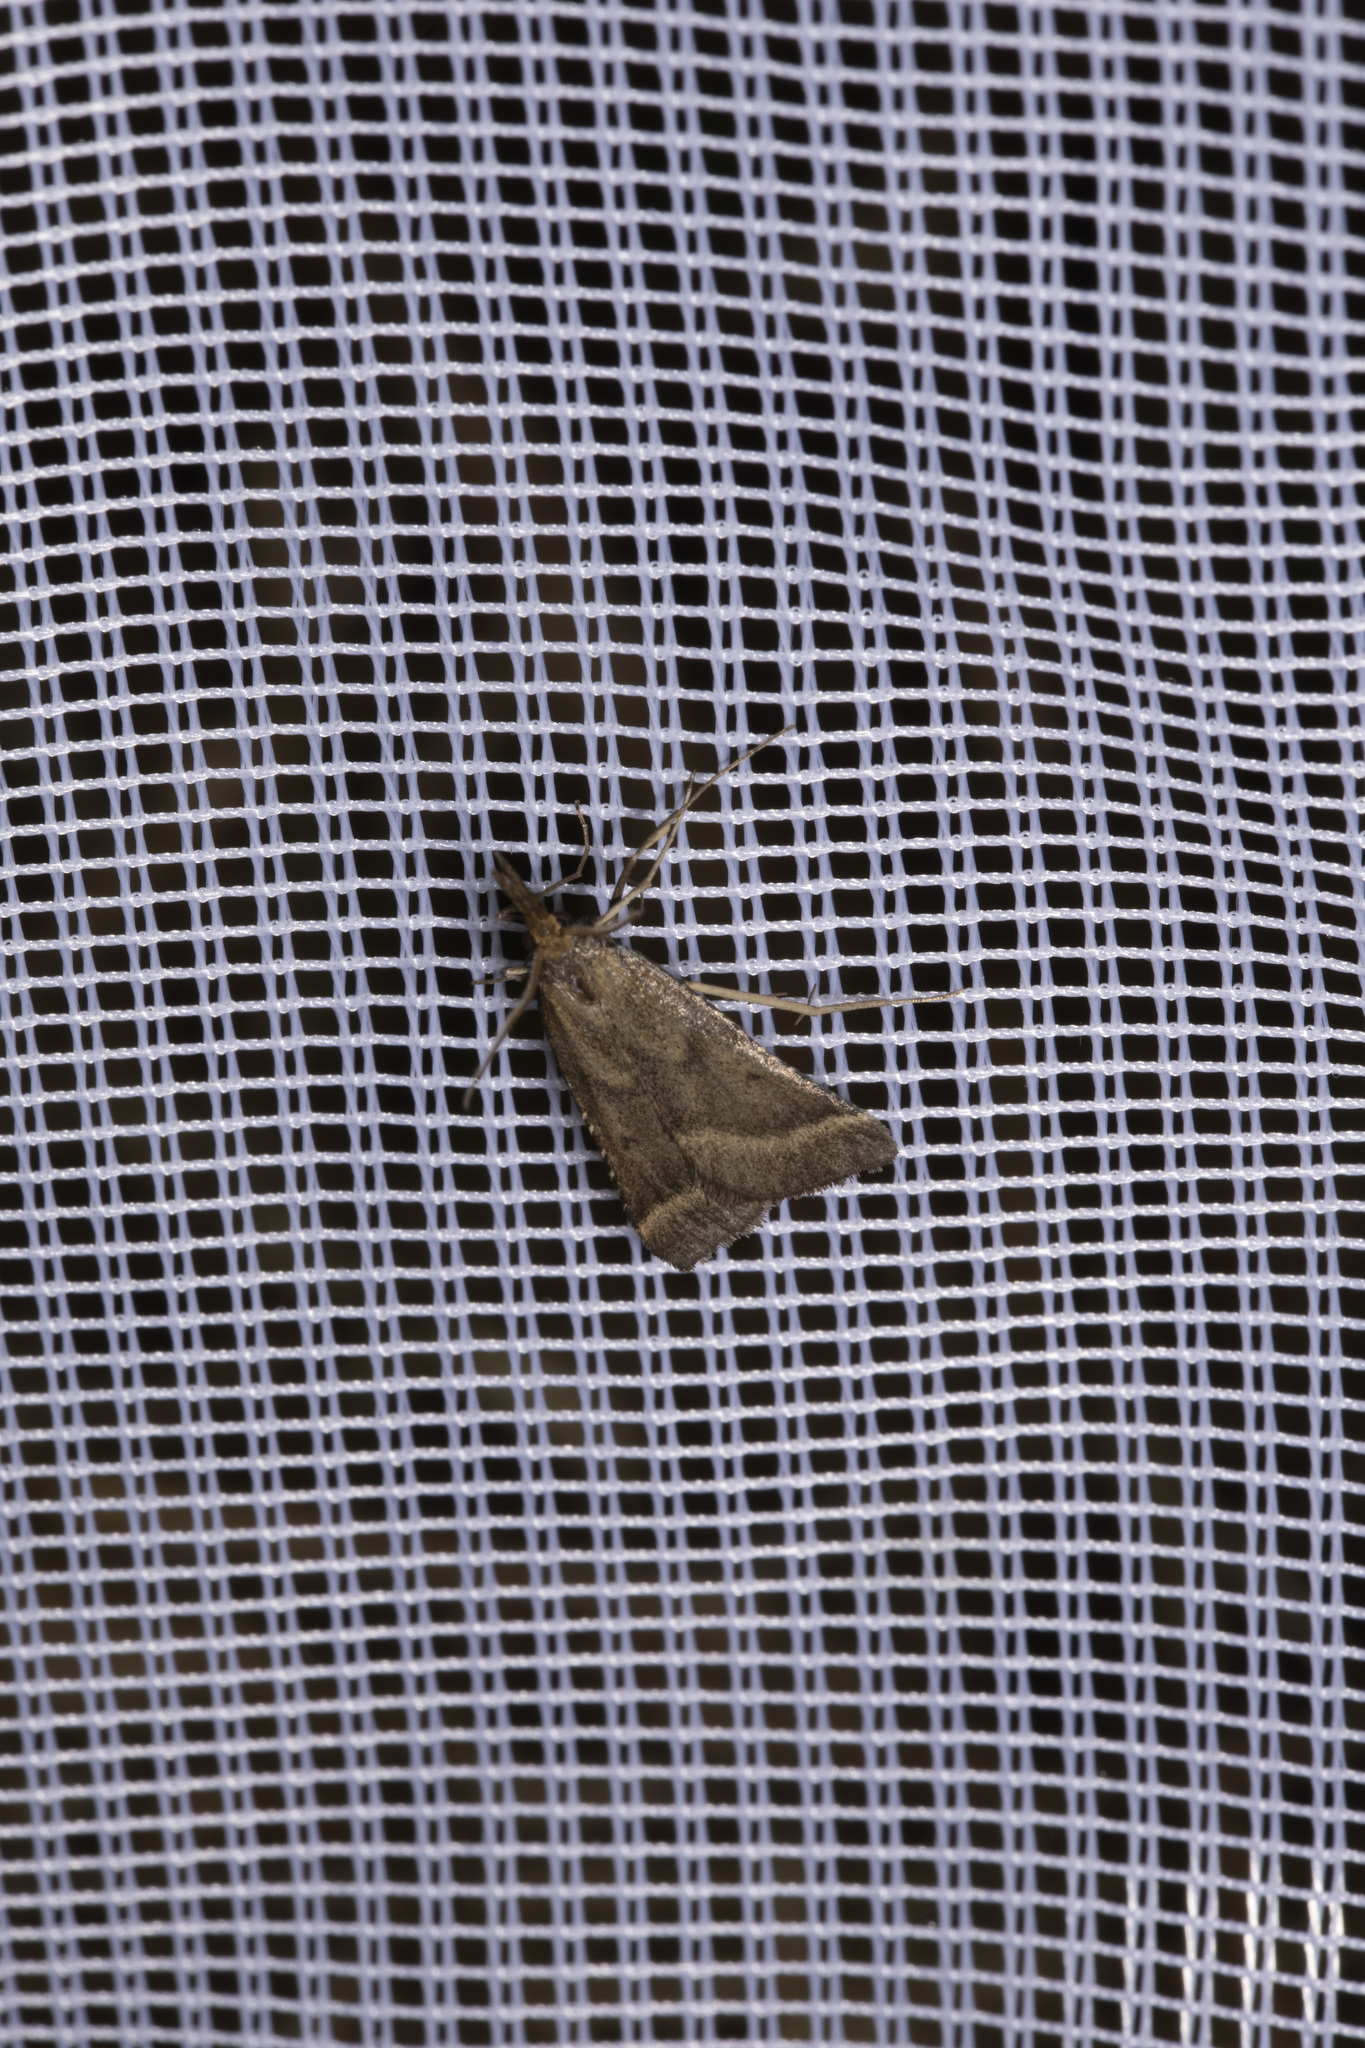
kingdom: Animalia
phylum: Arthropoda
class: Insecta
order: Lepidoptera
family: Pyralidae
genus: Synaphe
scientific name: Synaphe punctalis
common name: Long-legged tabby
